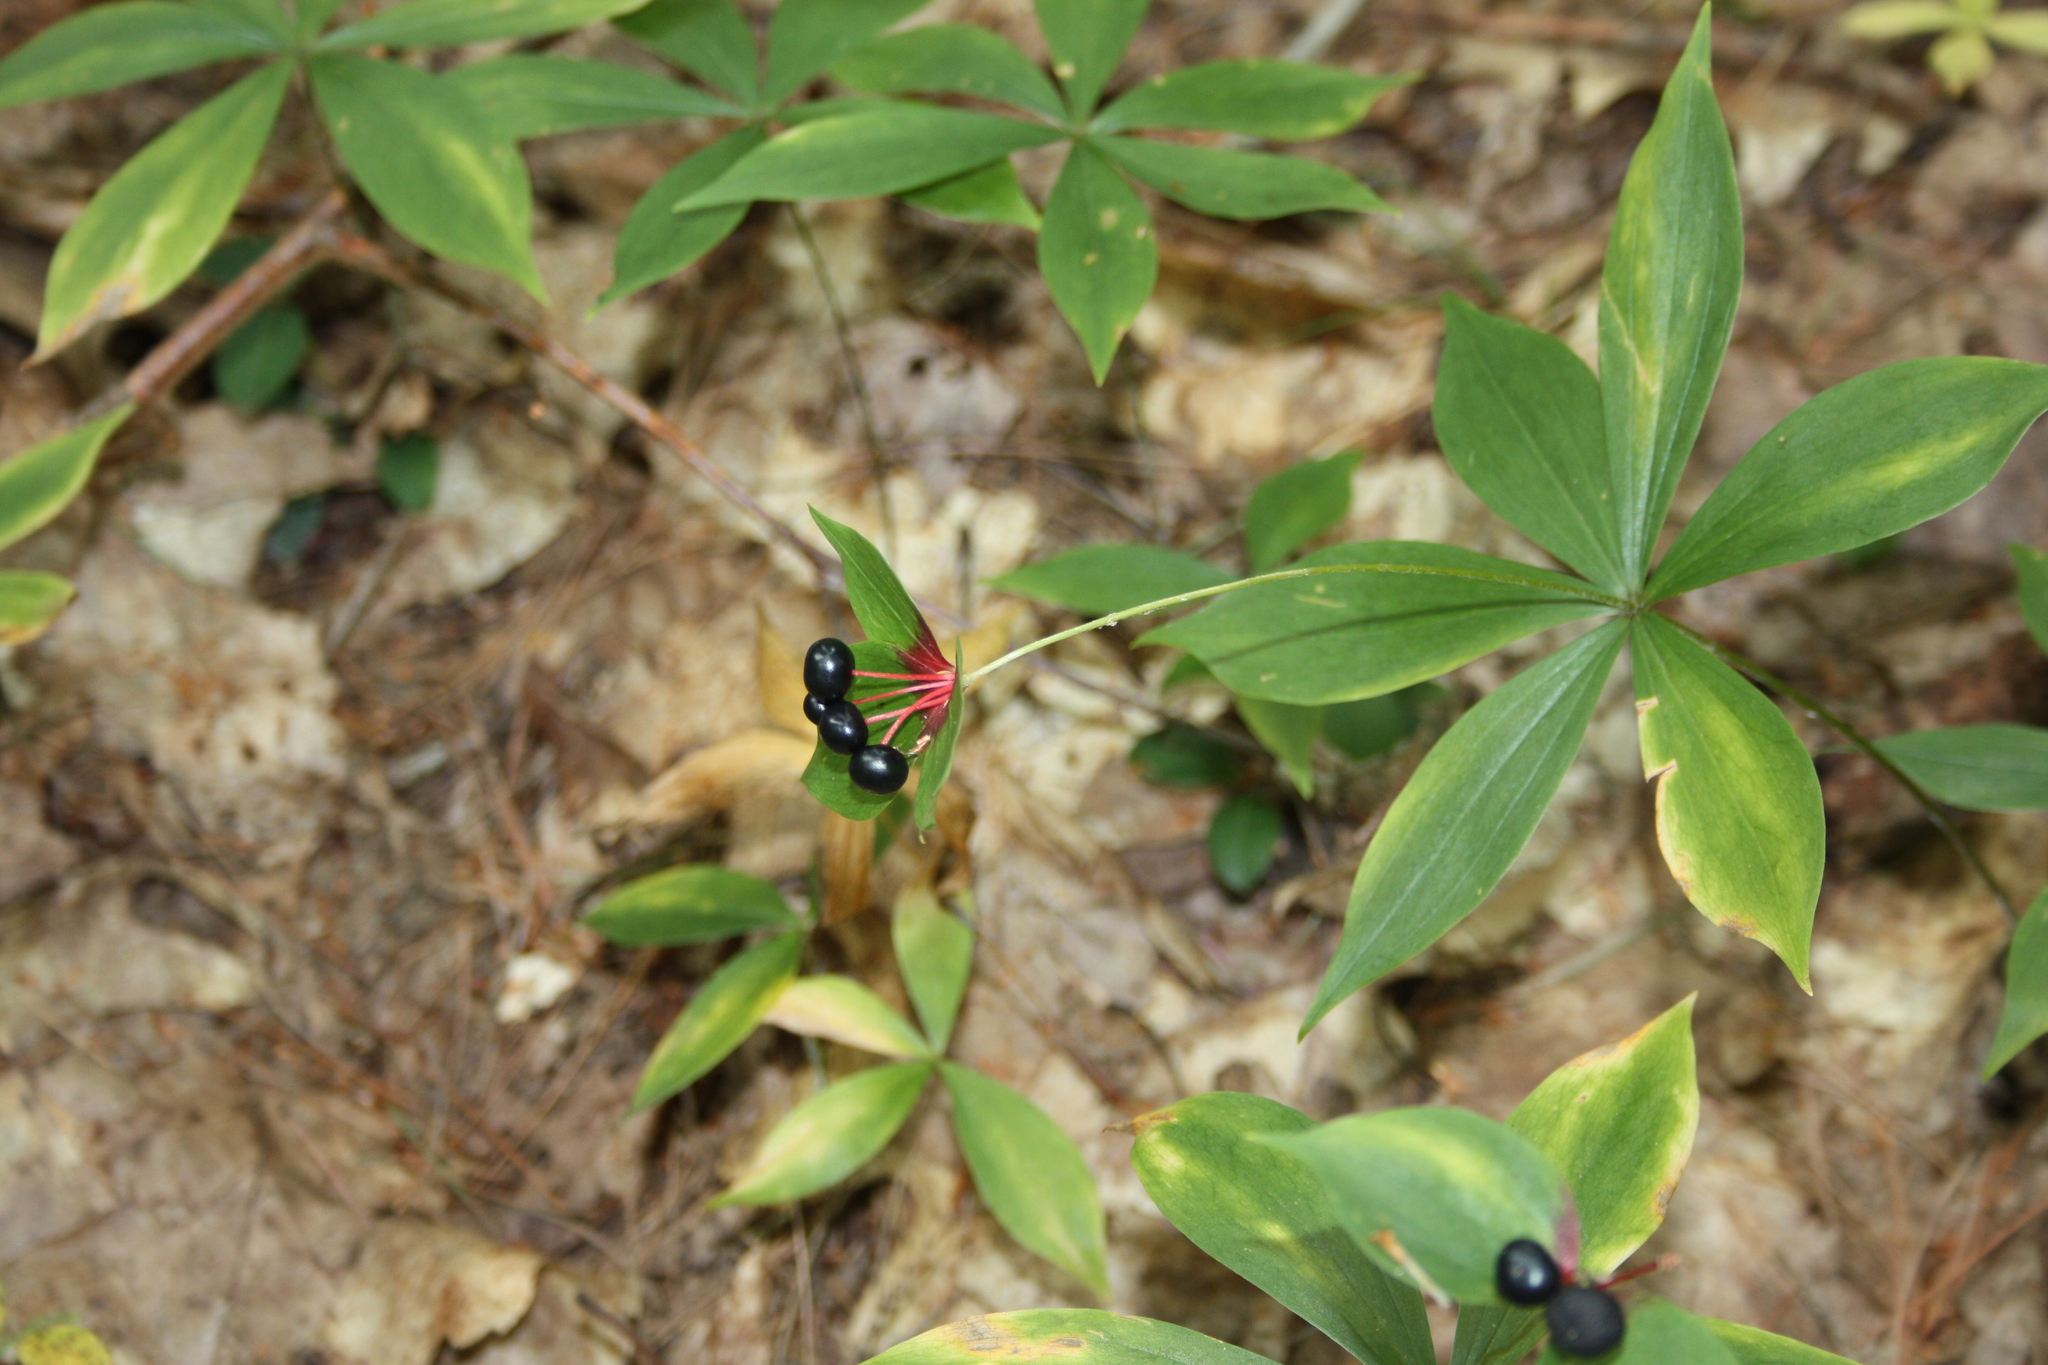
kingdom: Plantae
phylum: Tracheophyta
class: Liliopsida
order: Liliales
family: Liliaceae
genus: Medeola
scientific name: Medeola virginiana
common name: Indian cucumber-root
